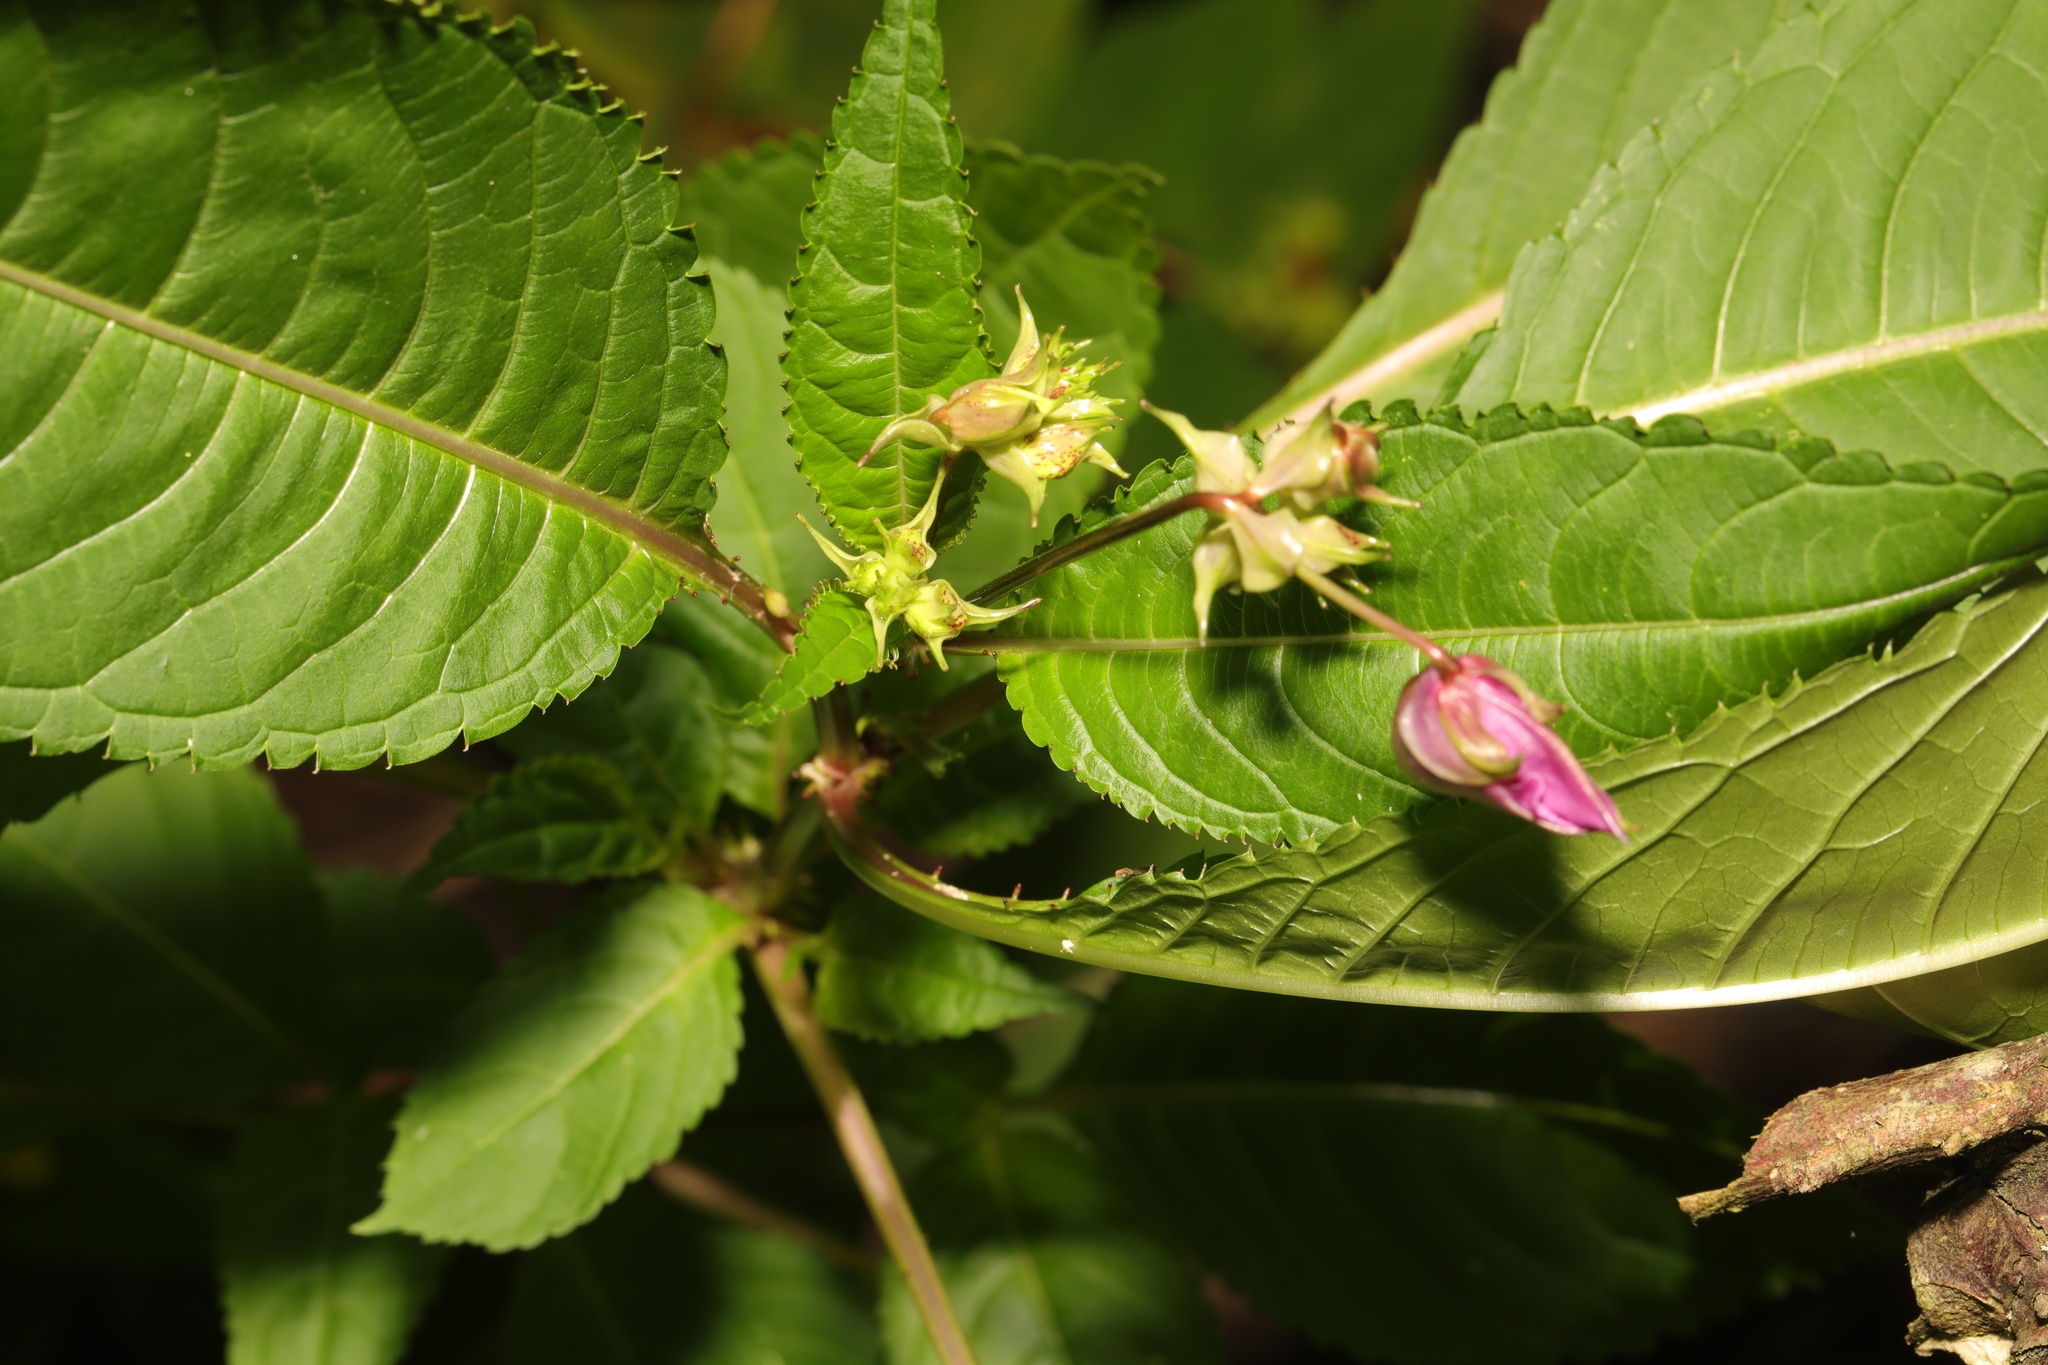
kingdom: Plantae
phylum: Tracheophyta
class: Magnoliopsida
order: Ericales
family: Balsaminaceae
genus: Impatiens
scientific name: Impatiens glandulifera
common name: Himalayan balsam
